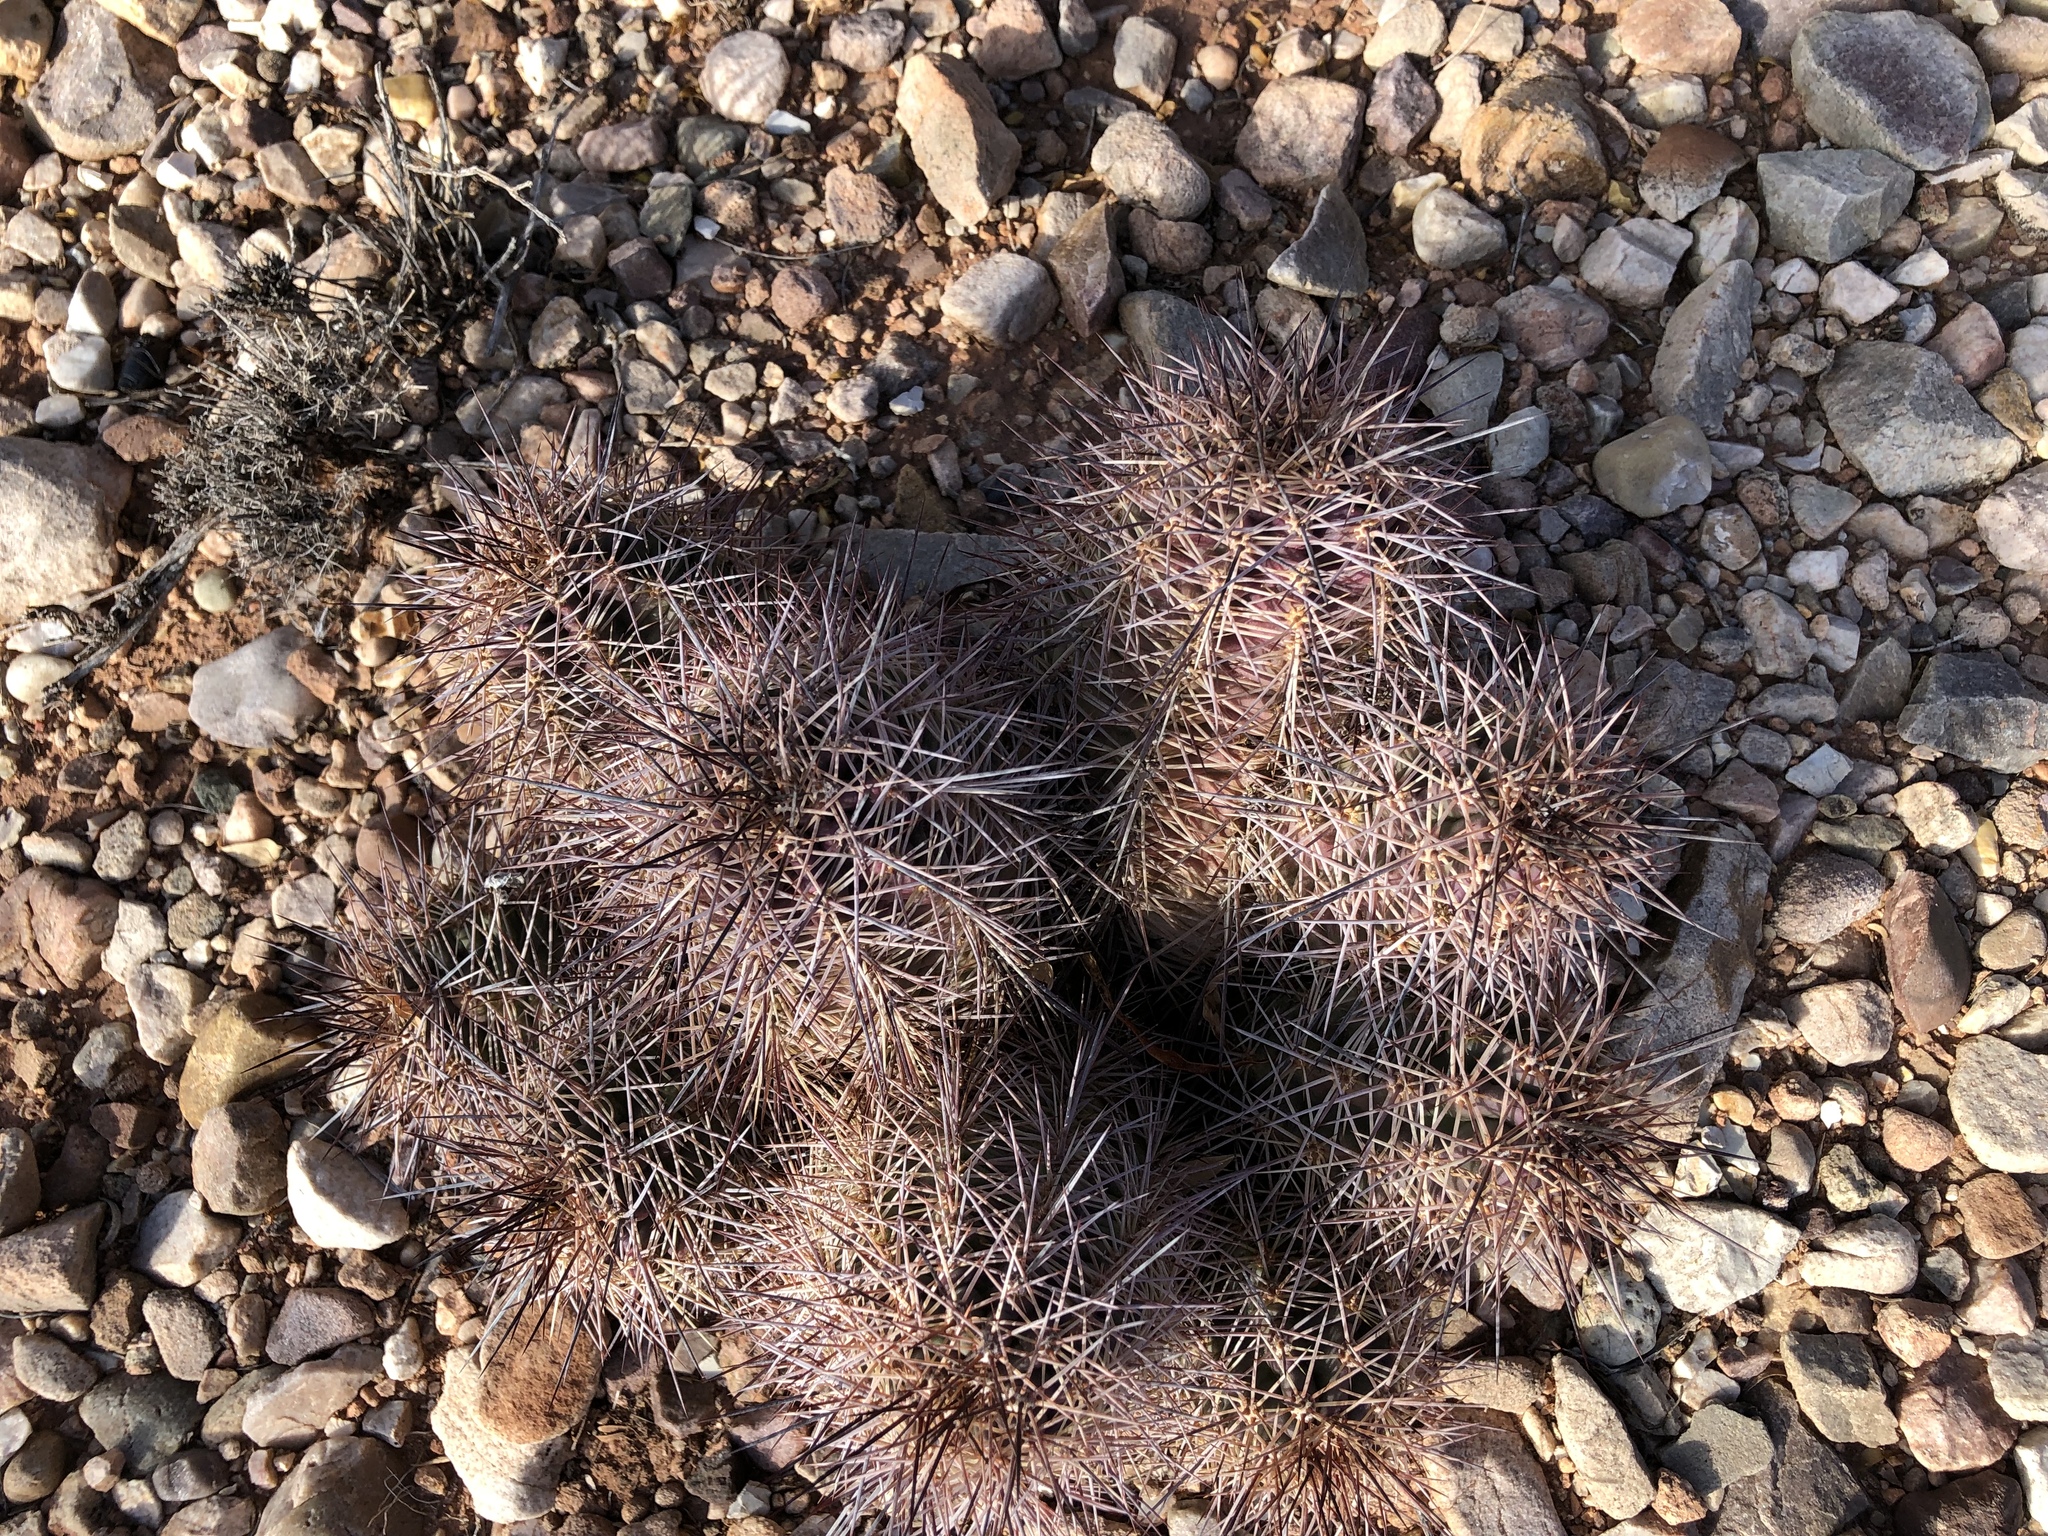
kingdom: Plantae
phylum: Tracheophyta
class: Magnoliopsida
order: Caryophyllales
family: Cactaceae
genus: Echinocereus
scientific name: Echinocereus coccineus
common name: Scarlet hedgehog cactus
